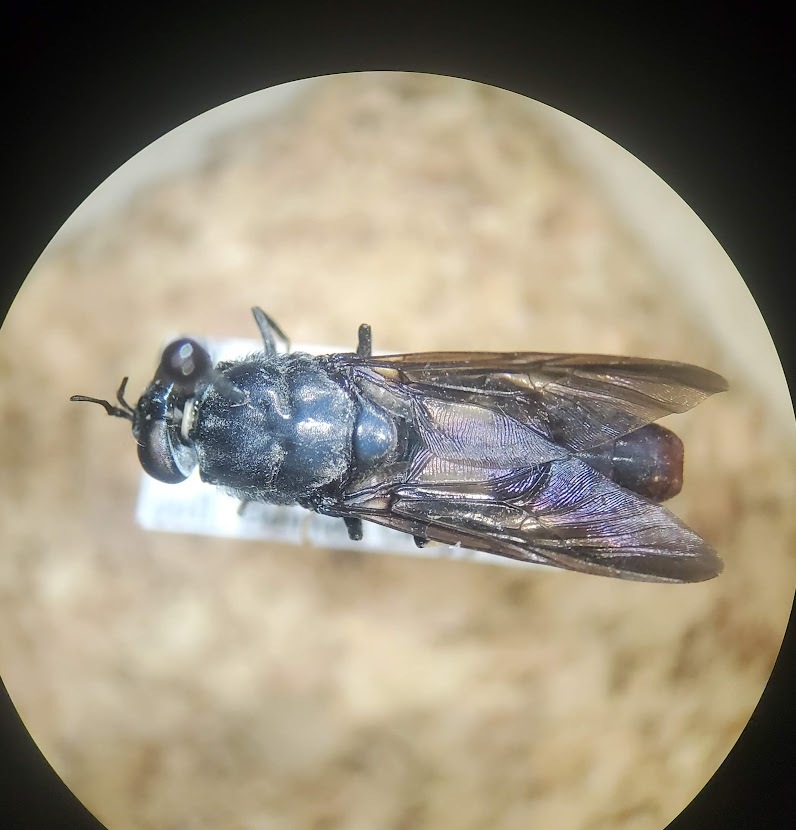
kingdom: Animalia
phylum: Arthropoda
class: Insecta
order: Diptera
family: Stratiomyidae
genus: Hermetia
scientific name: Hermetia illucens
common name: Black soldier fly
